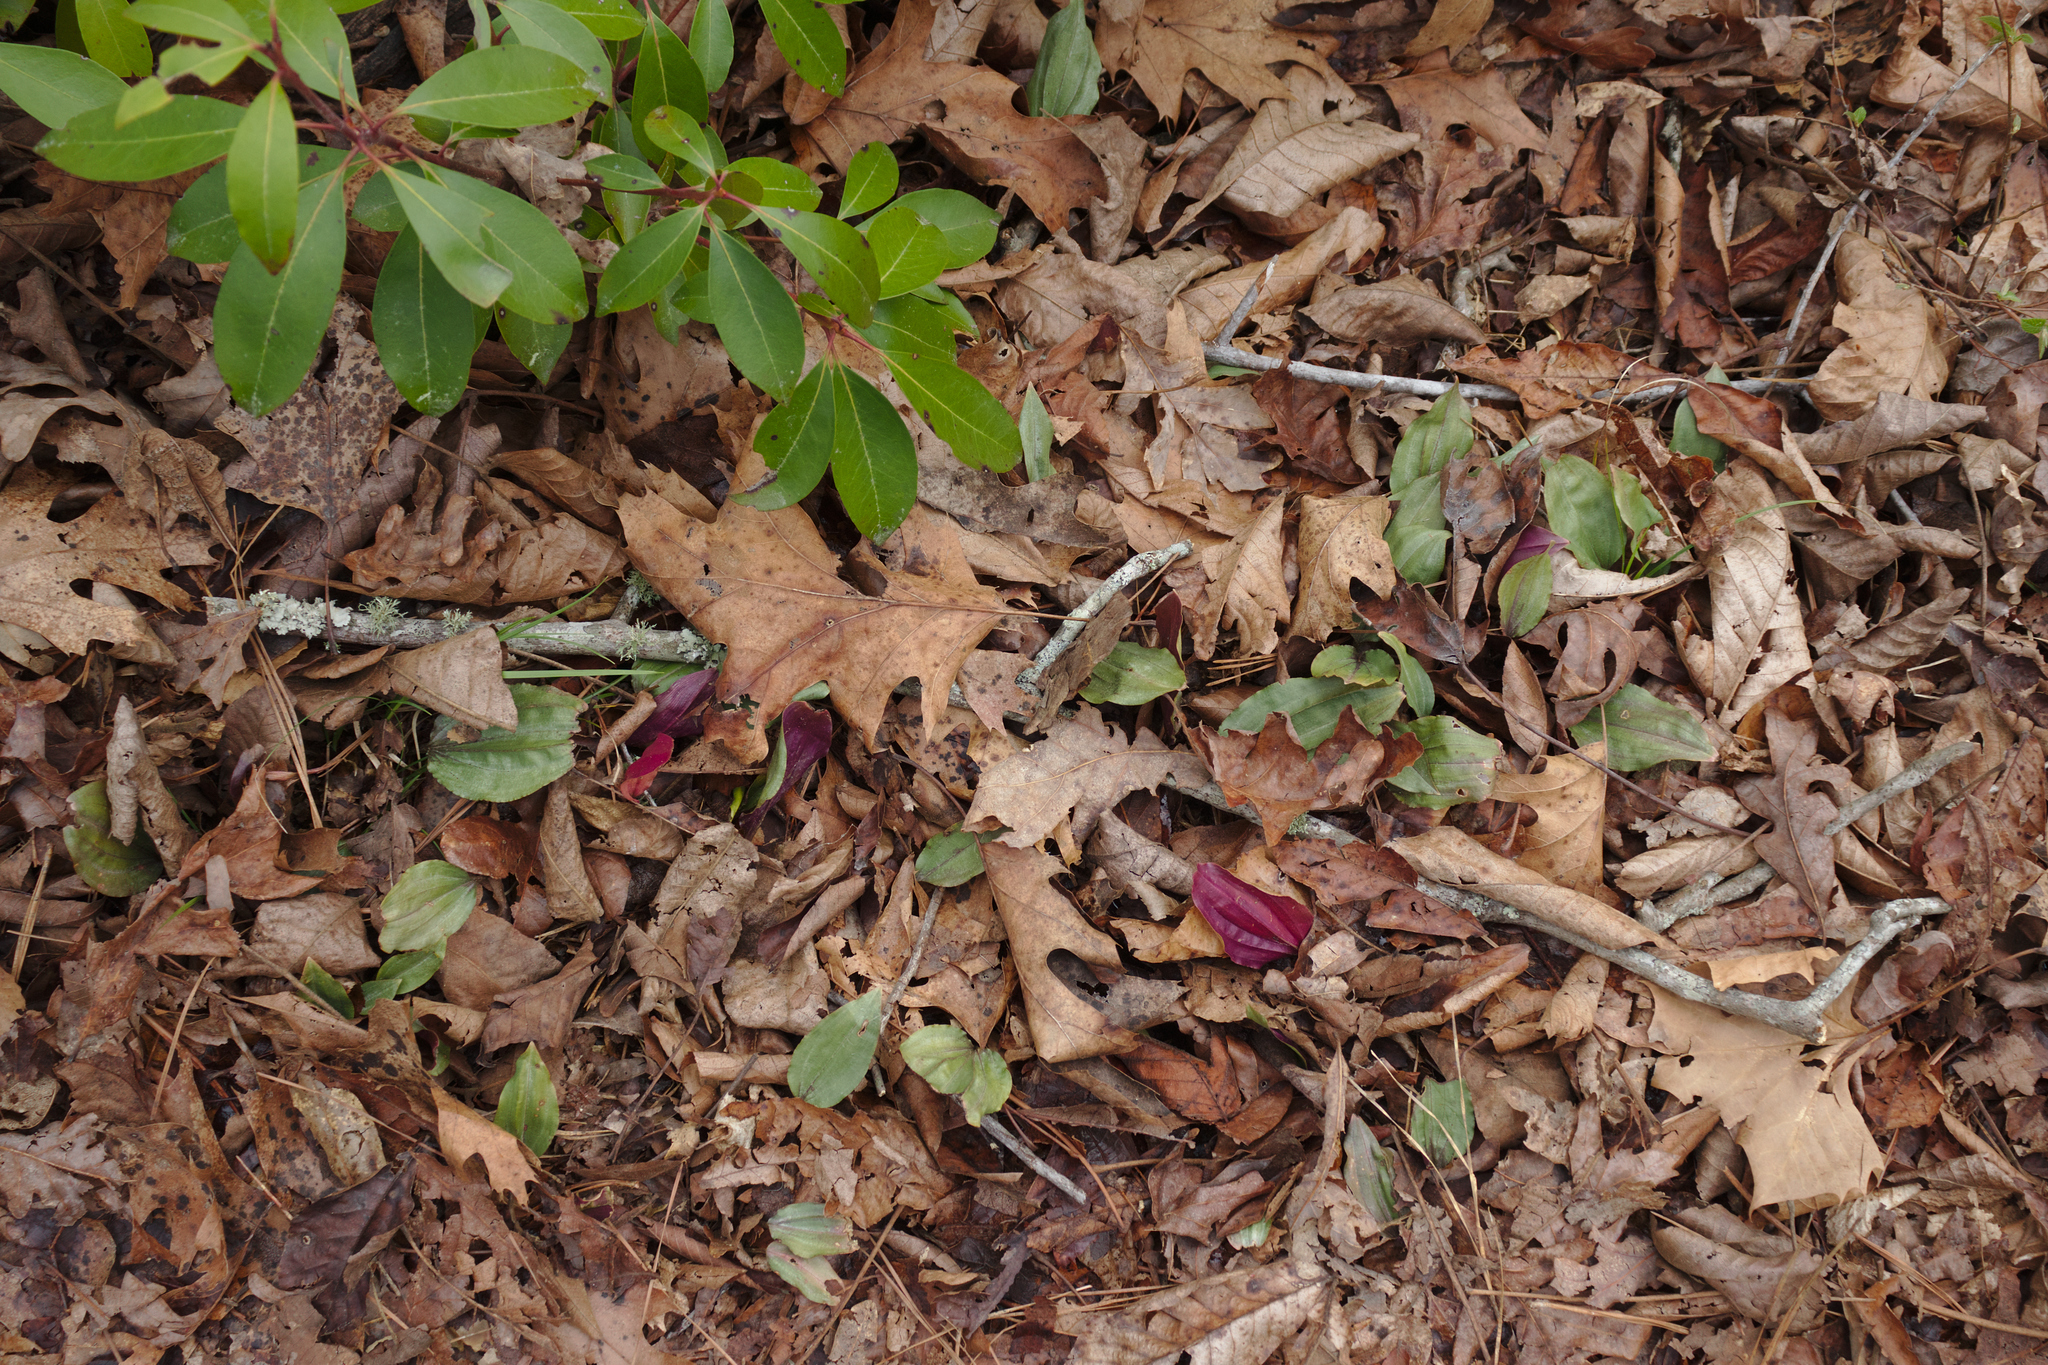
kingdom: Plantae
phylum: Tracheophyta
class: Liliopsida
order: Asparagales
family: Orchidaceae
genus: Tipularia
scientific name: Tipularia discolor
